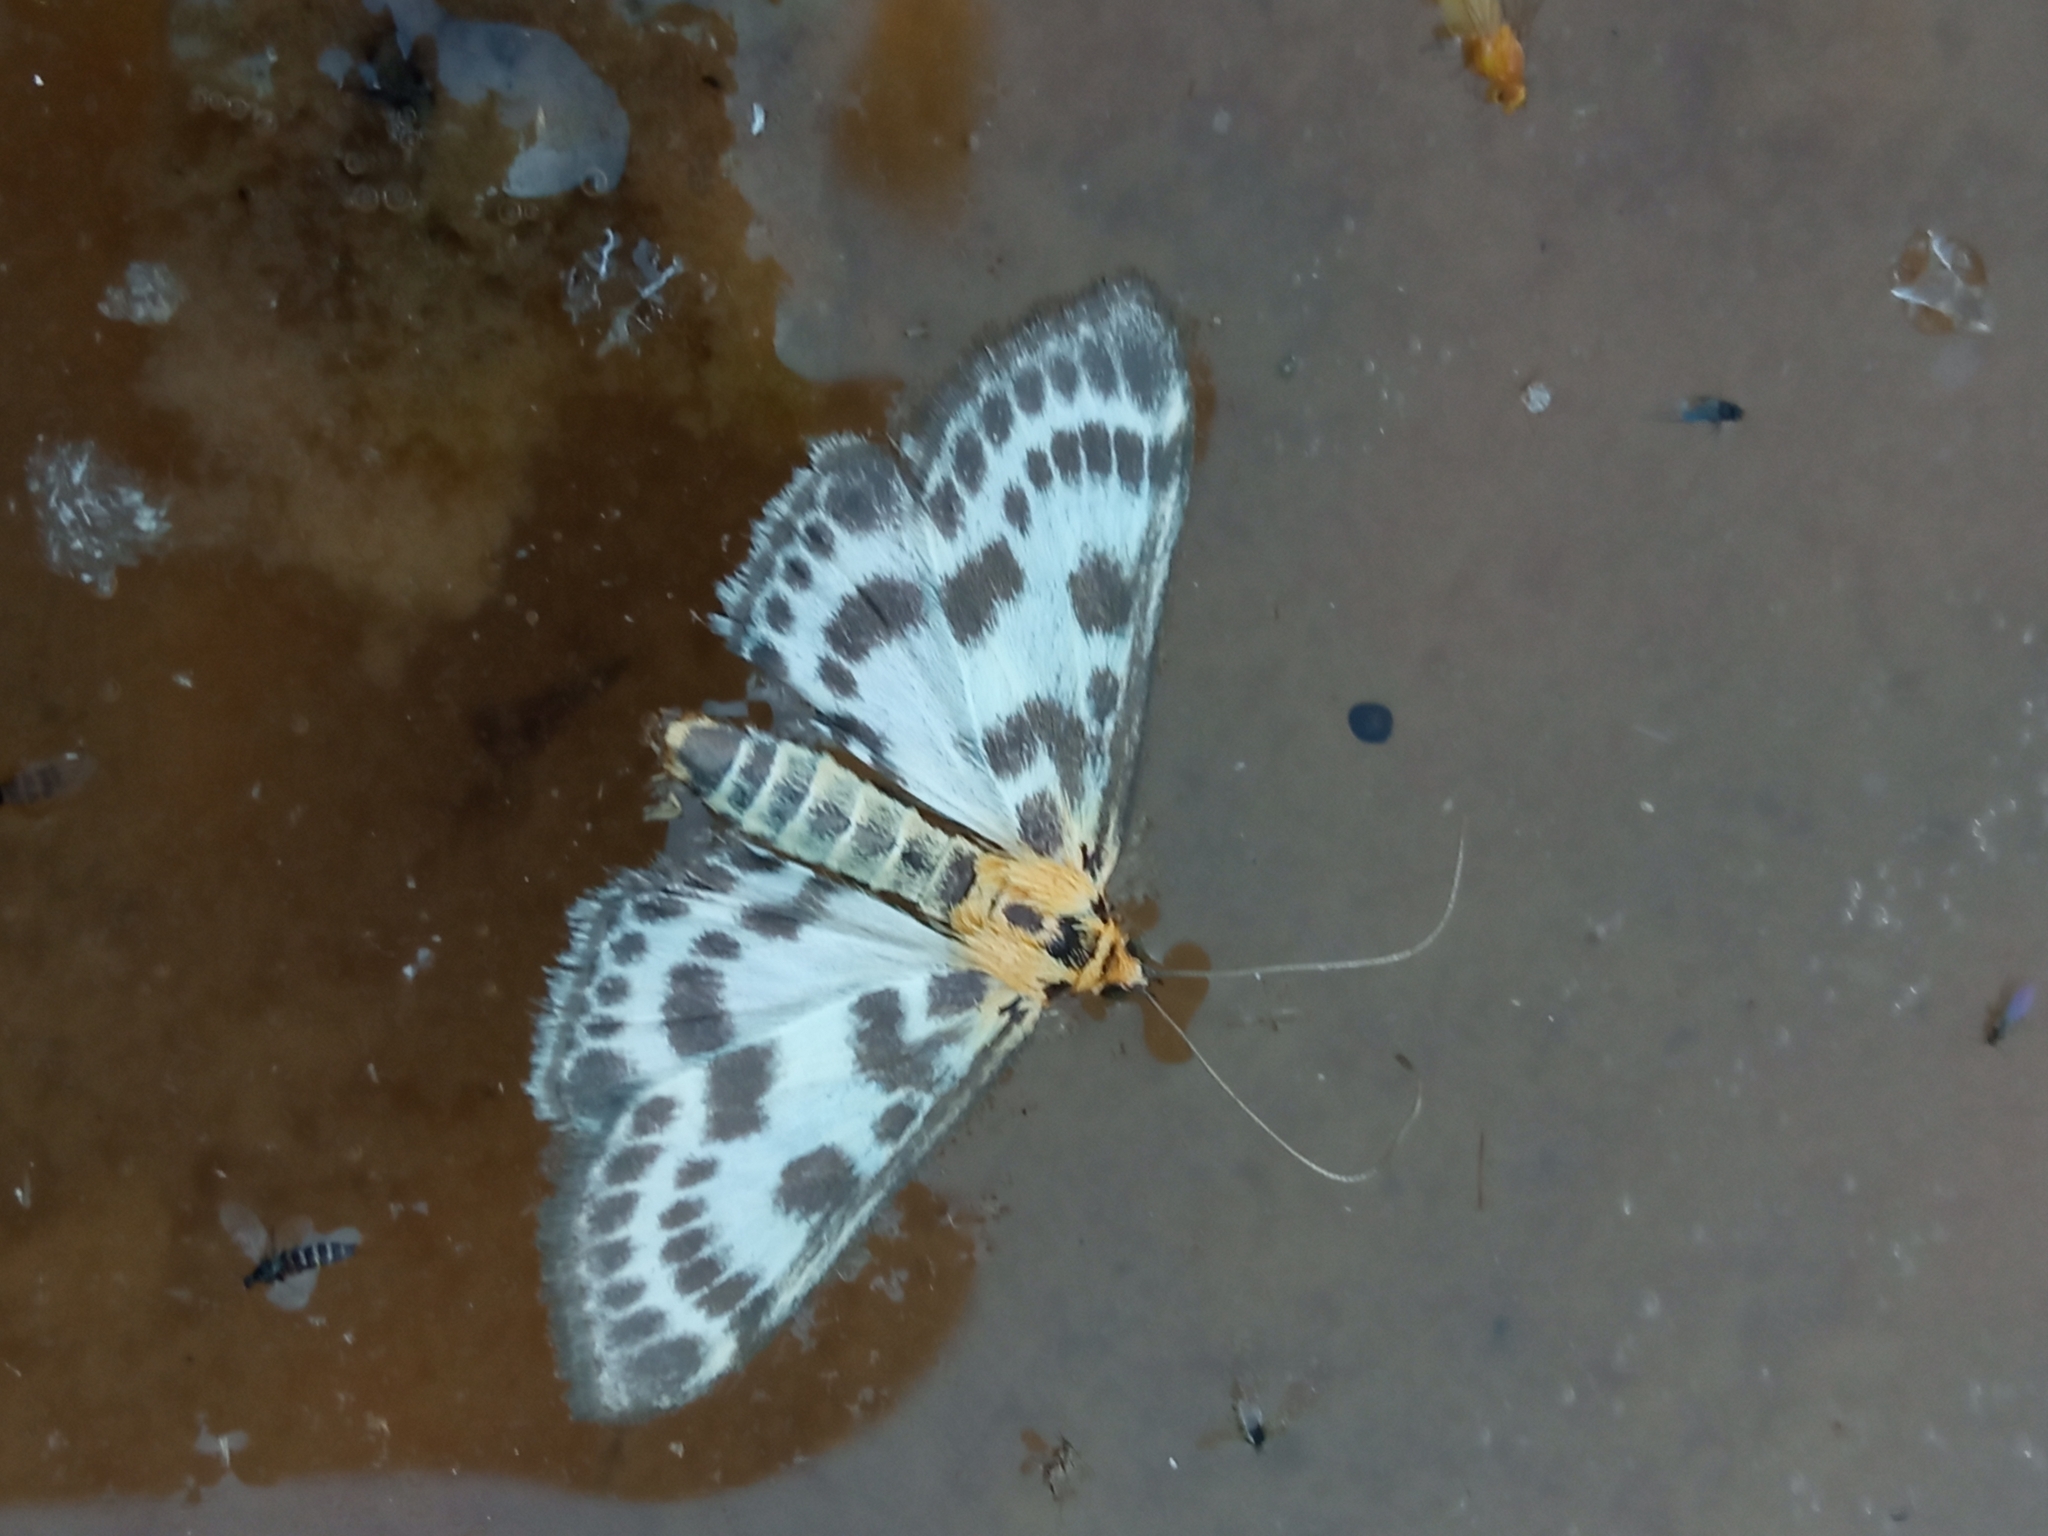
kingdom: Animalia
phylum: Arthropoda
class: Insecta
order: Lepidoptera
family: Crambidae
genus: Anania
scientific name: Anania hortulata
